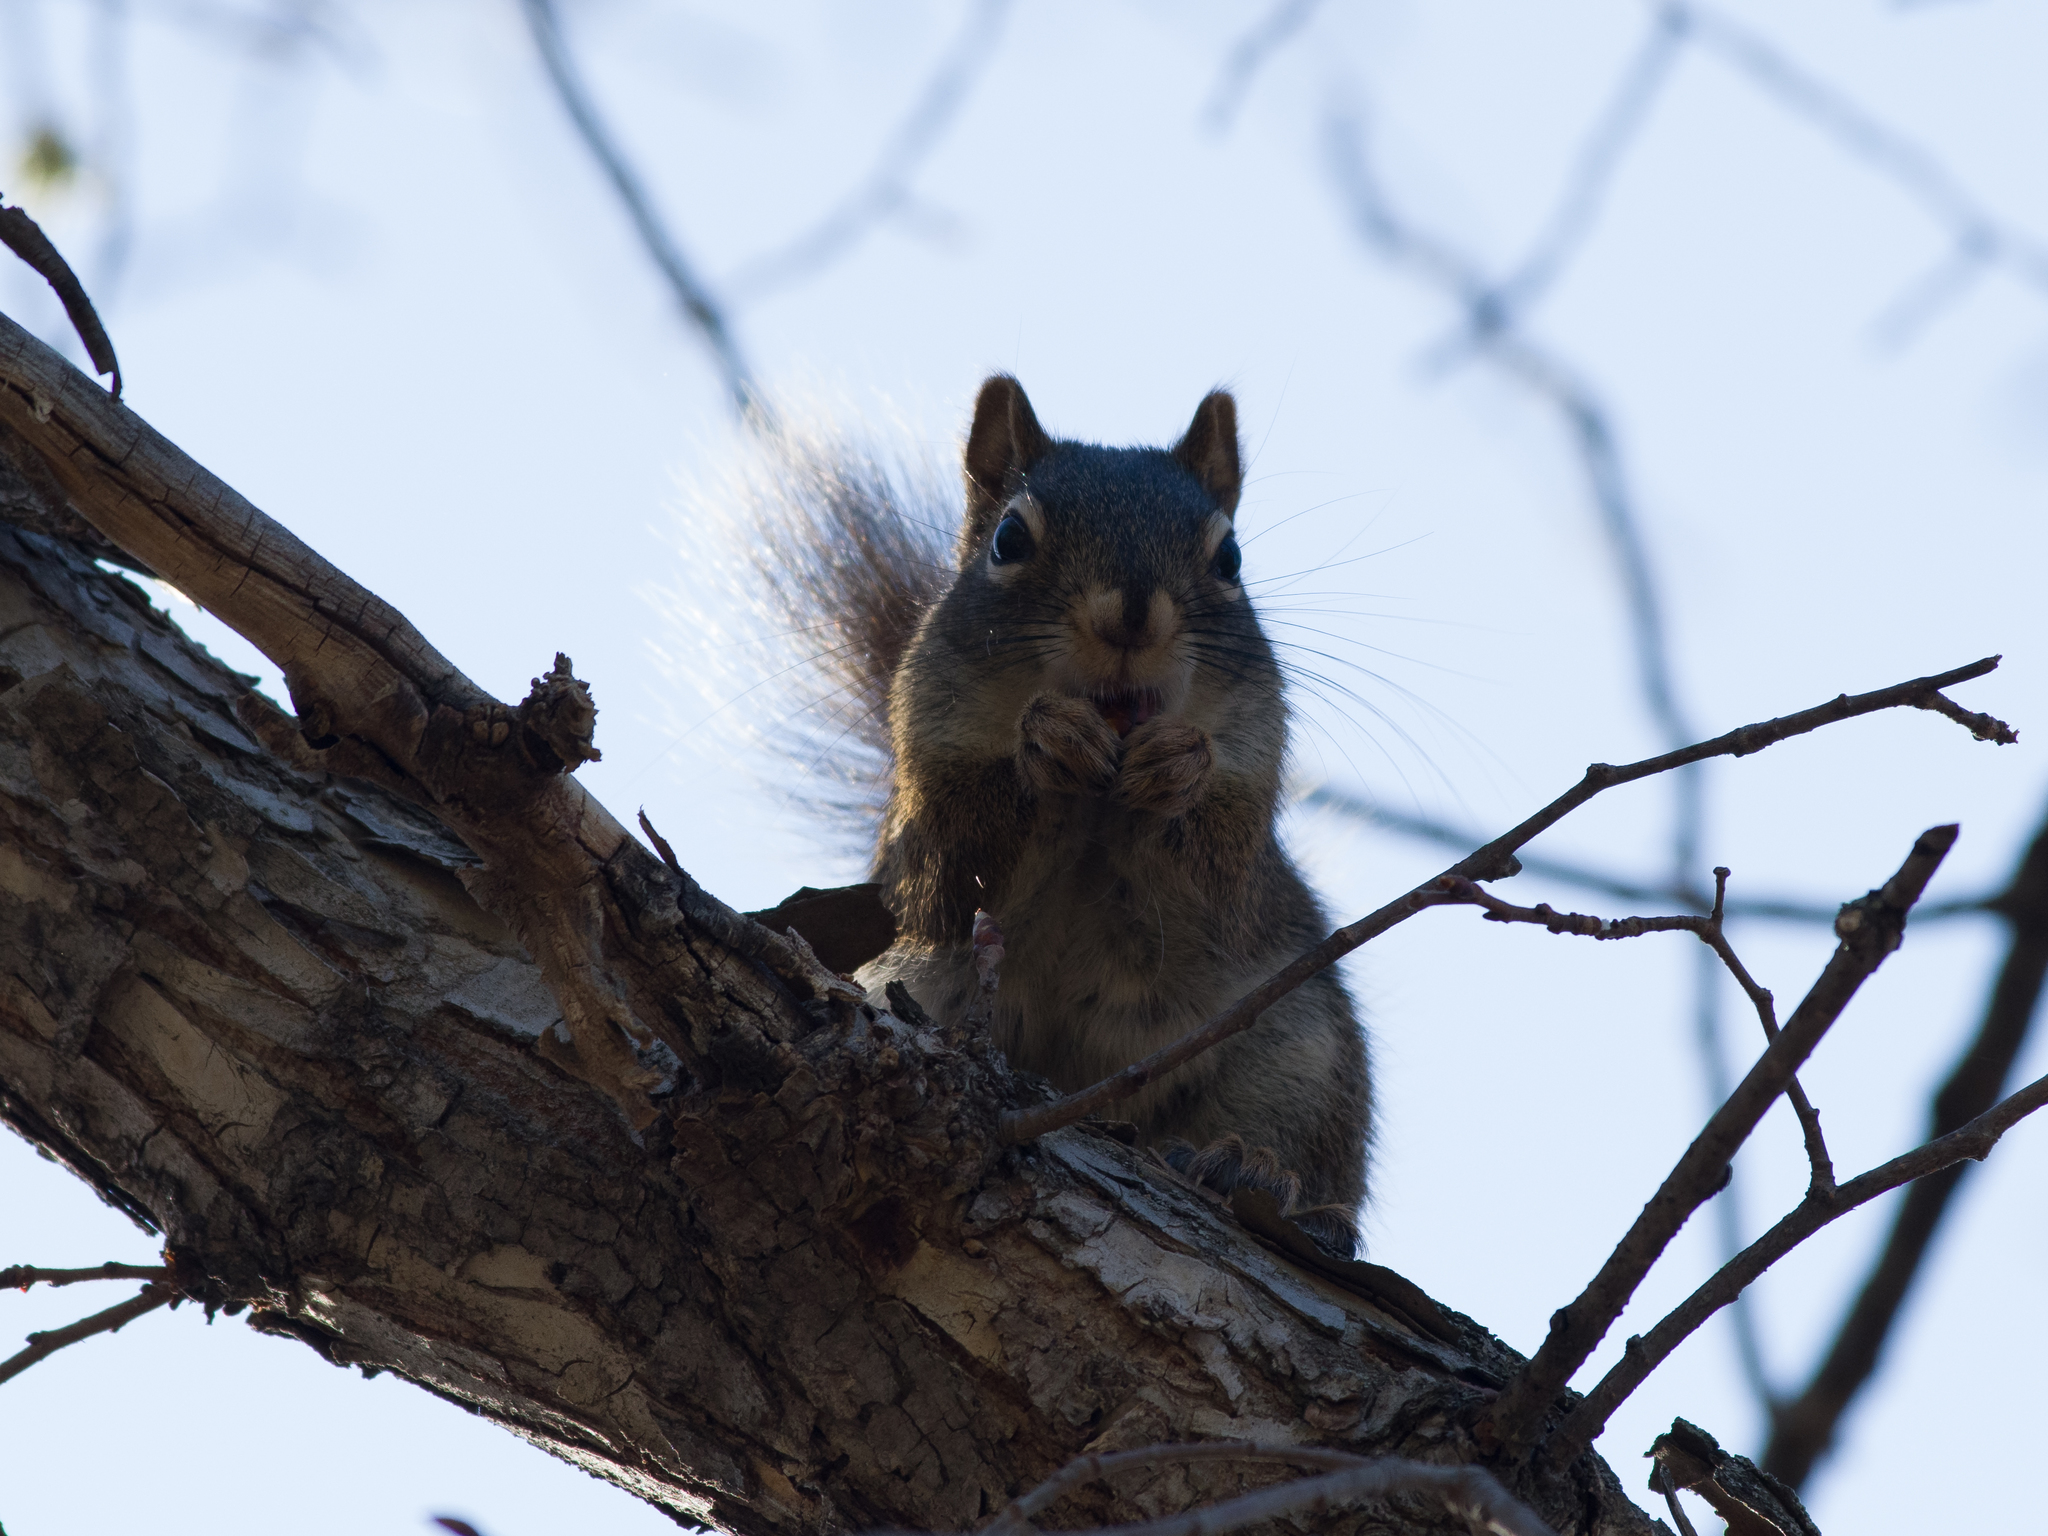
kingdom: Animalia
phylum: Chordata
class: Mammalia
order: Rodentia
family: Sciuridae
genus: Tamiasciurus
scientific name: Tamiasciurus hudsonicus
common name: Red squirrel
